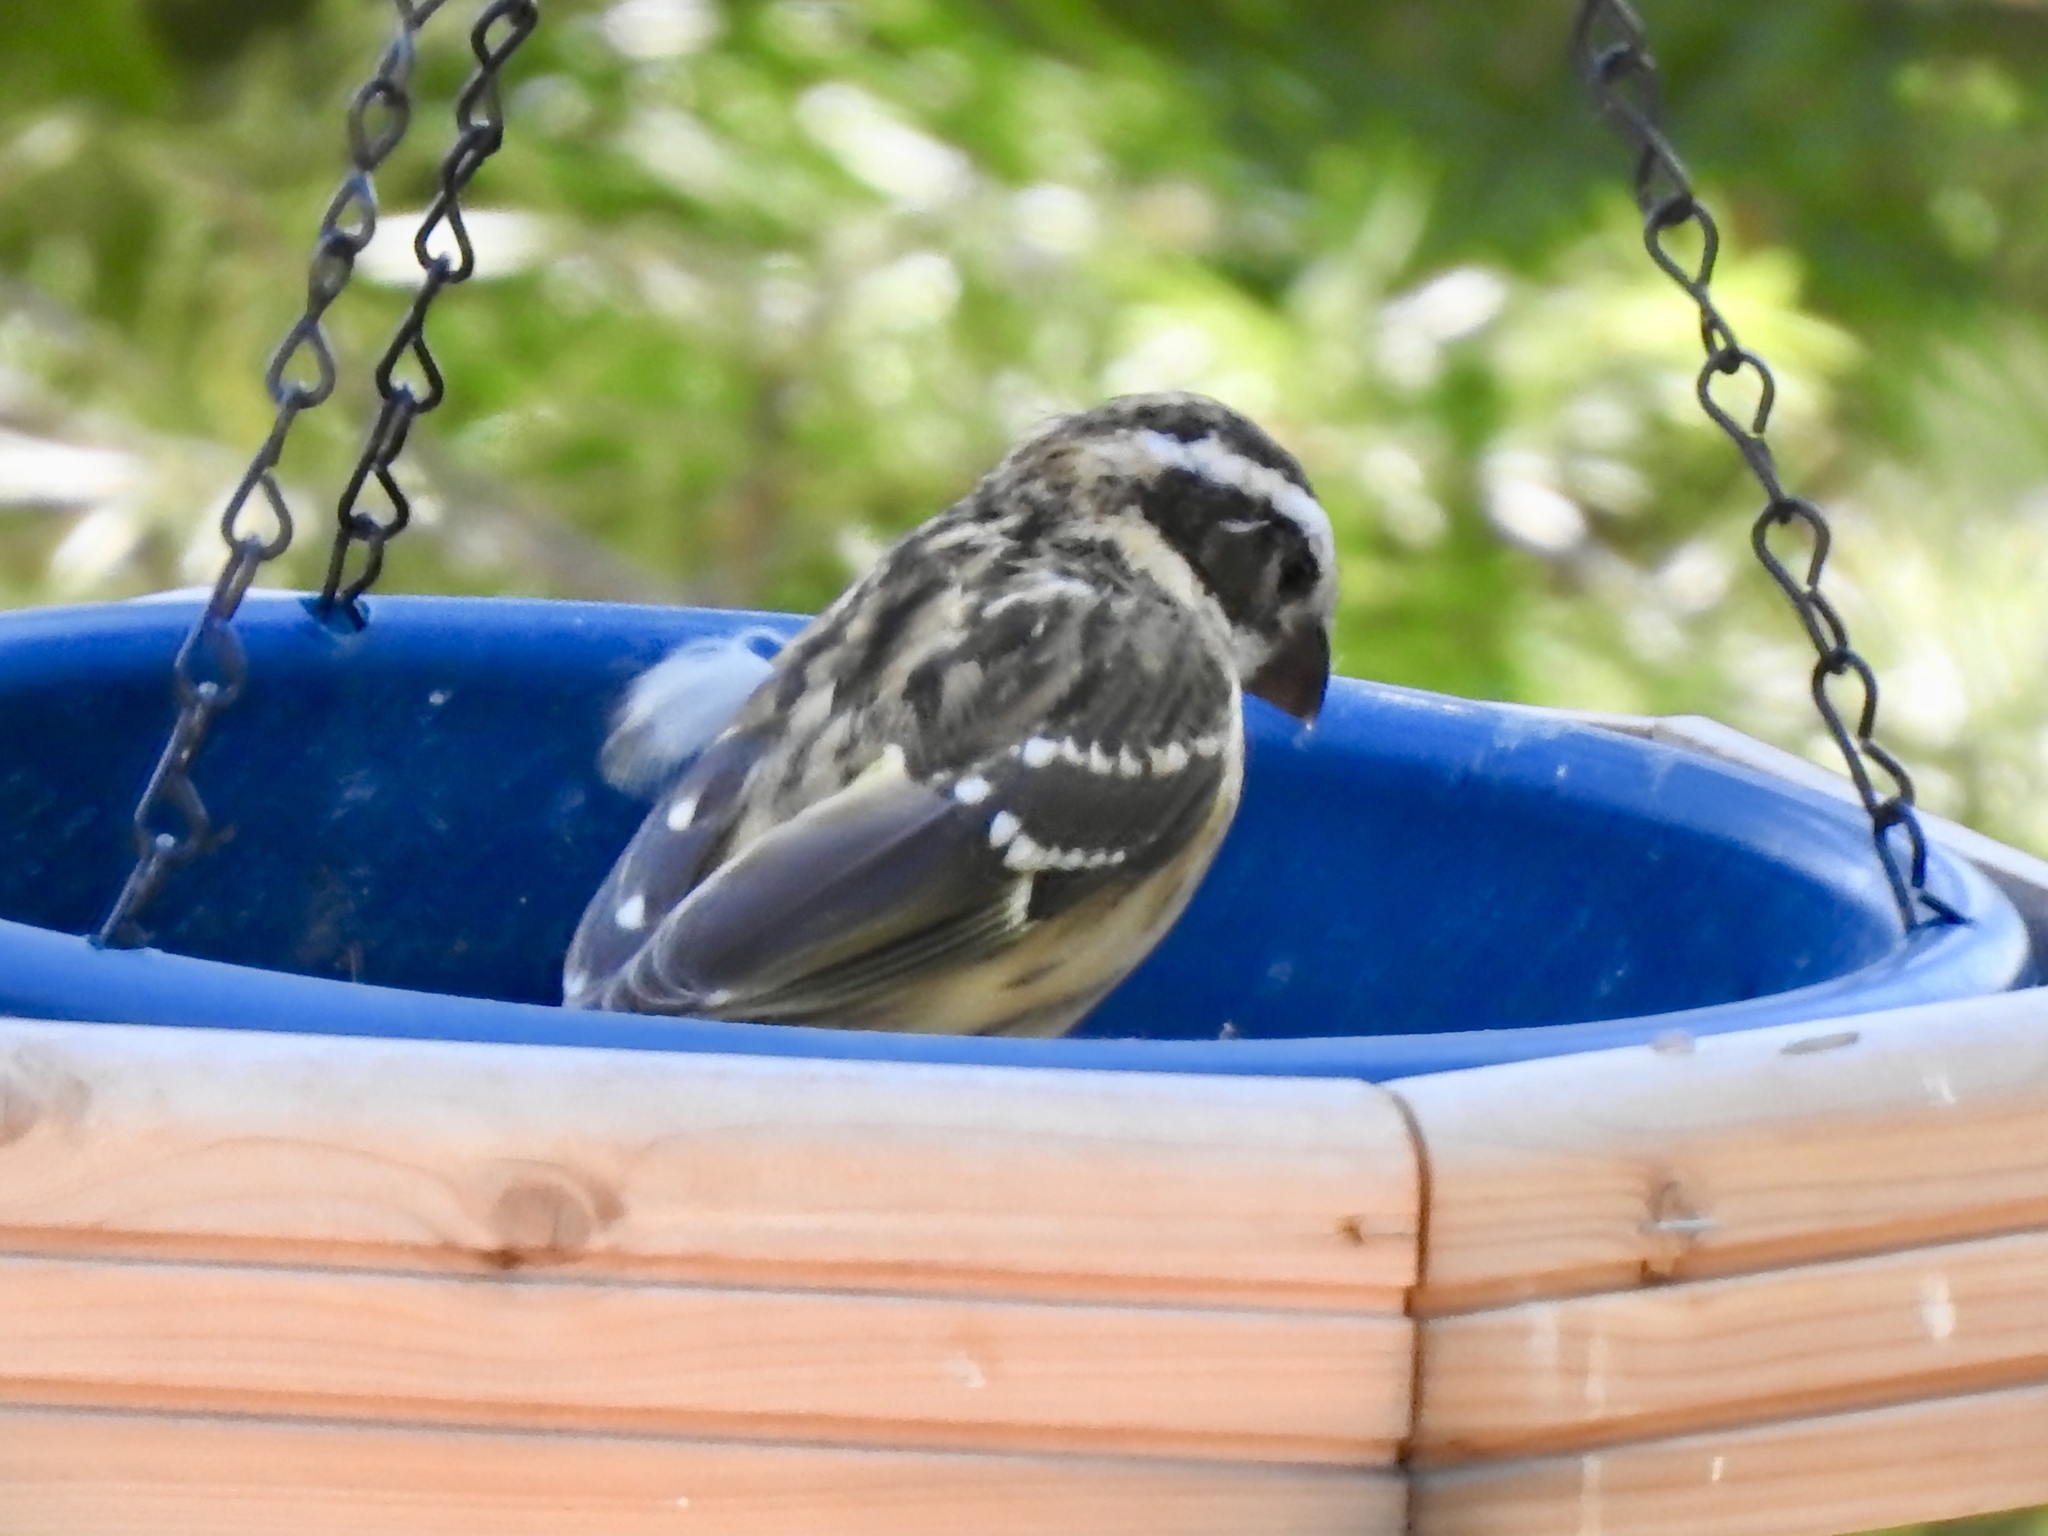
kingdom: Animalia
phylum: Chordata
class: Aves
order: Passeriformes
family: Cardinalidae
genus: Pheucticus
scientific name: Pheucticus melanocephalus
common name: Black-headed grosbeak
